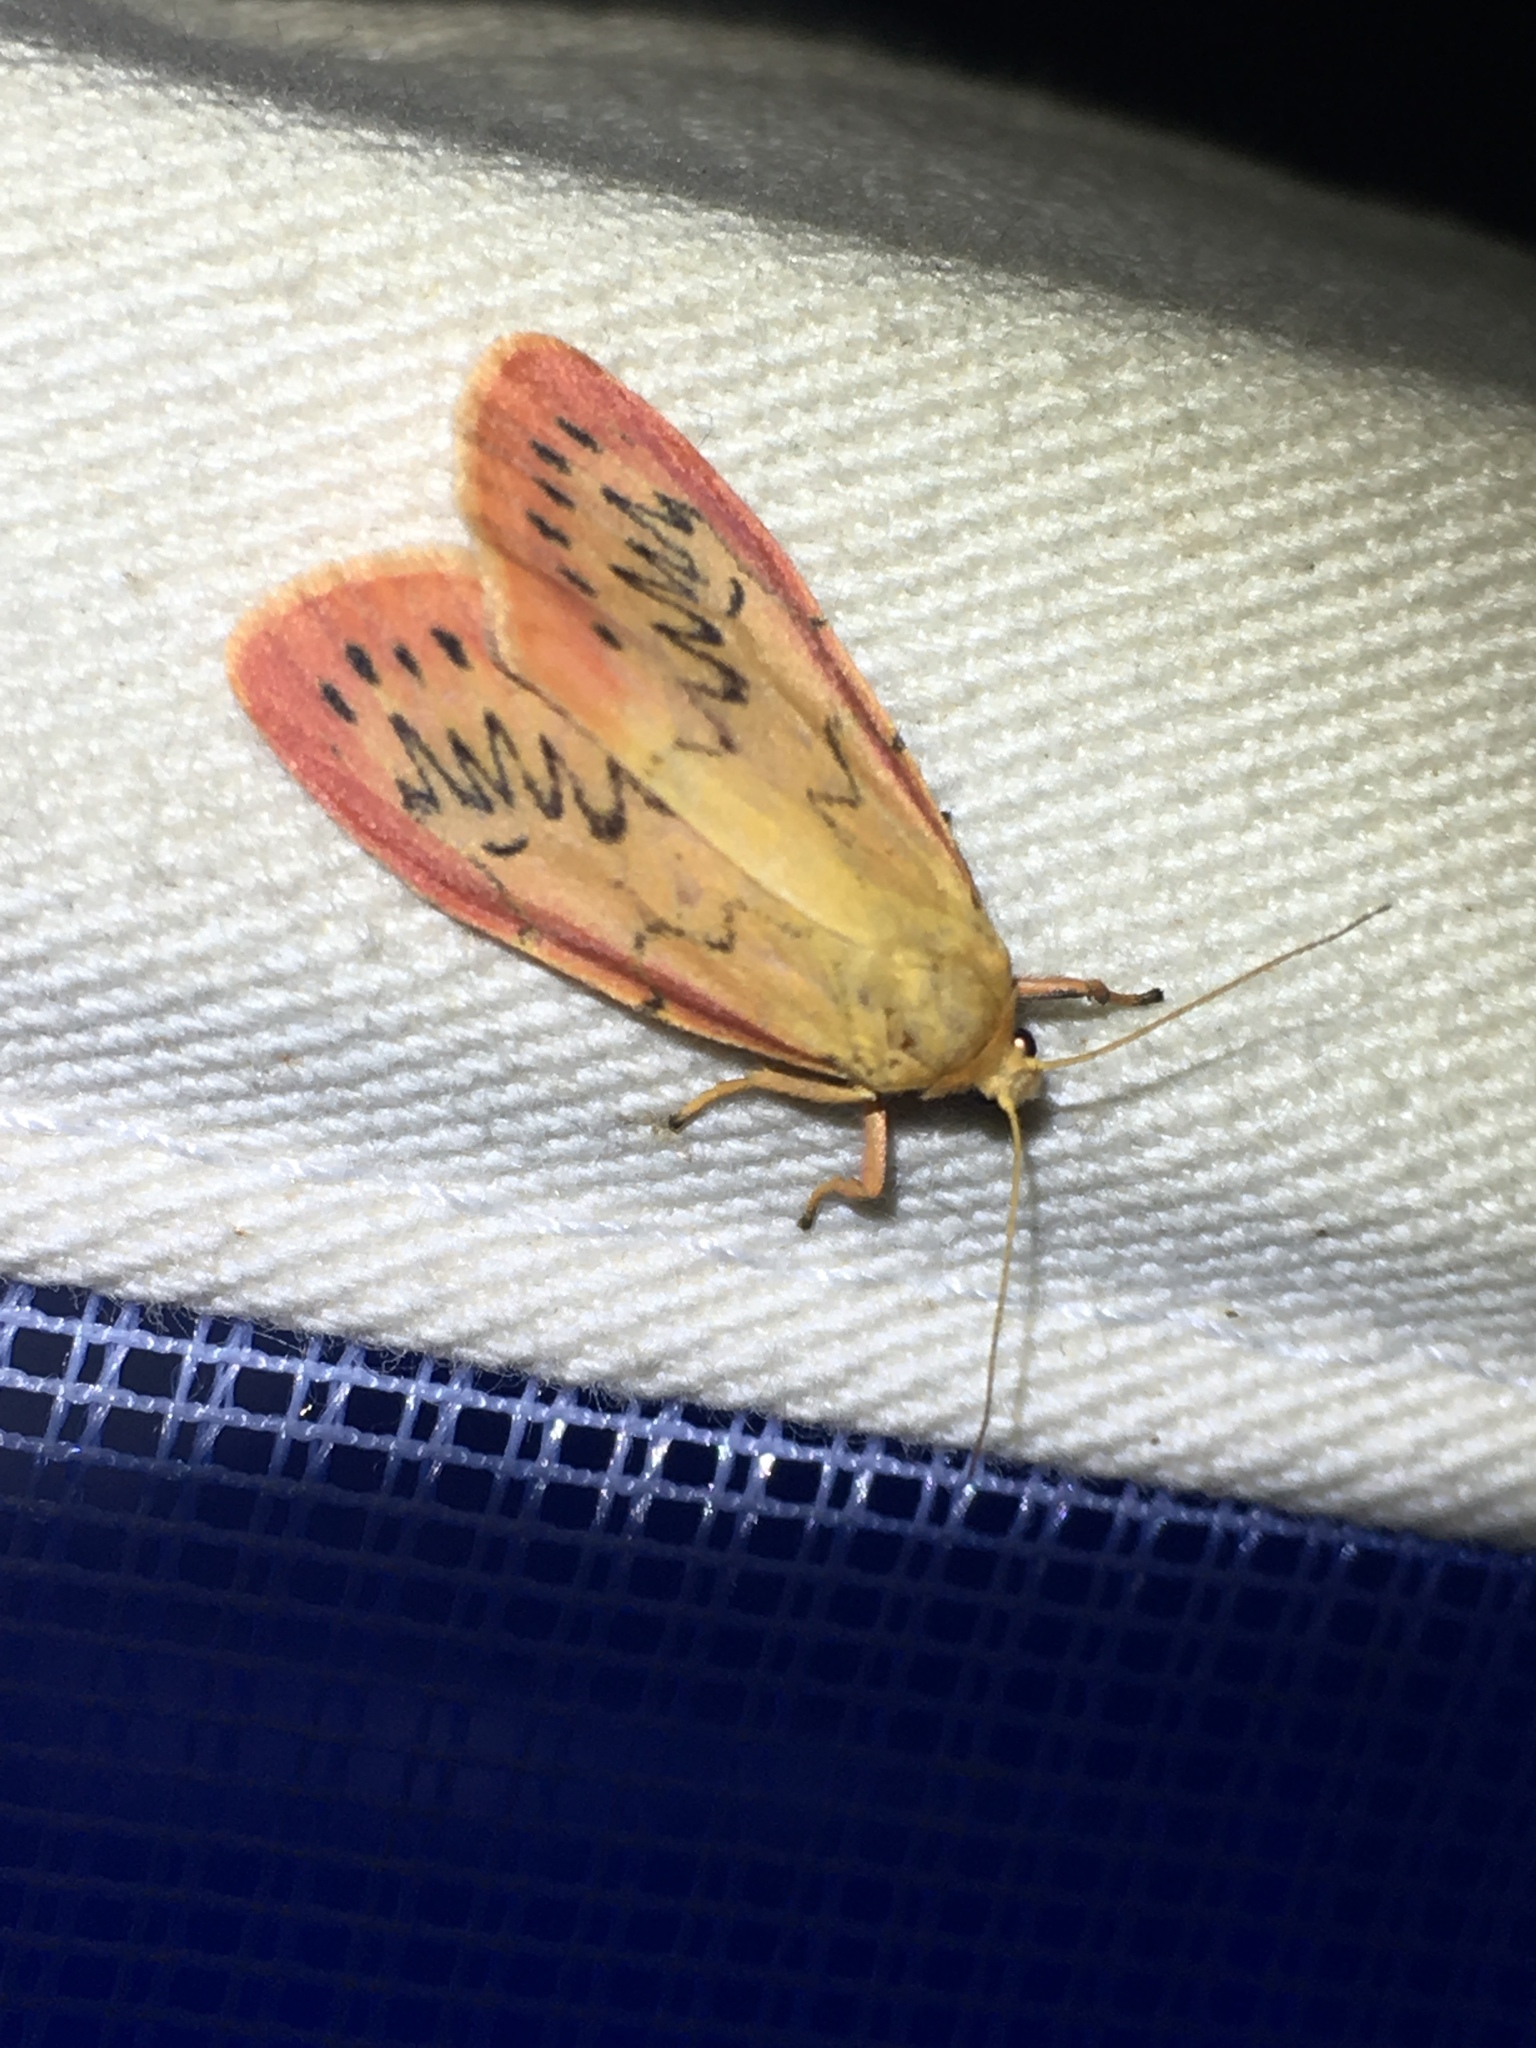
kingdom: Animalia
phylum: Arthropoda
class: Insecta
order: Lepidoptera
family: Erebidae
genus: Miltochrista
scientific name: Miltochrista miniata
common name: Rosy footman
